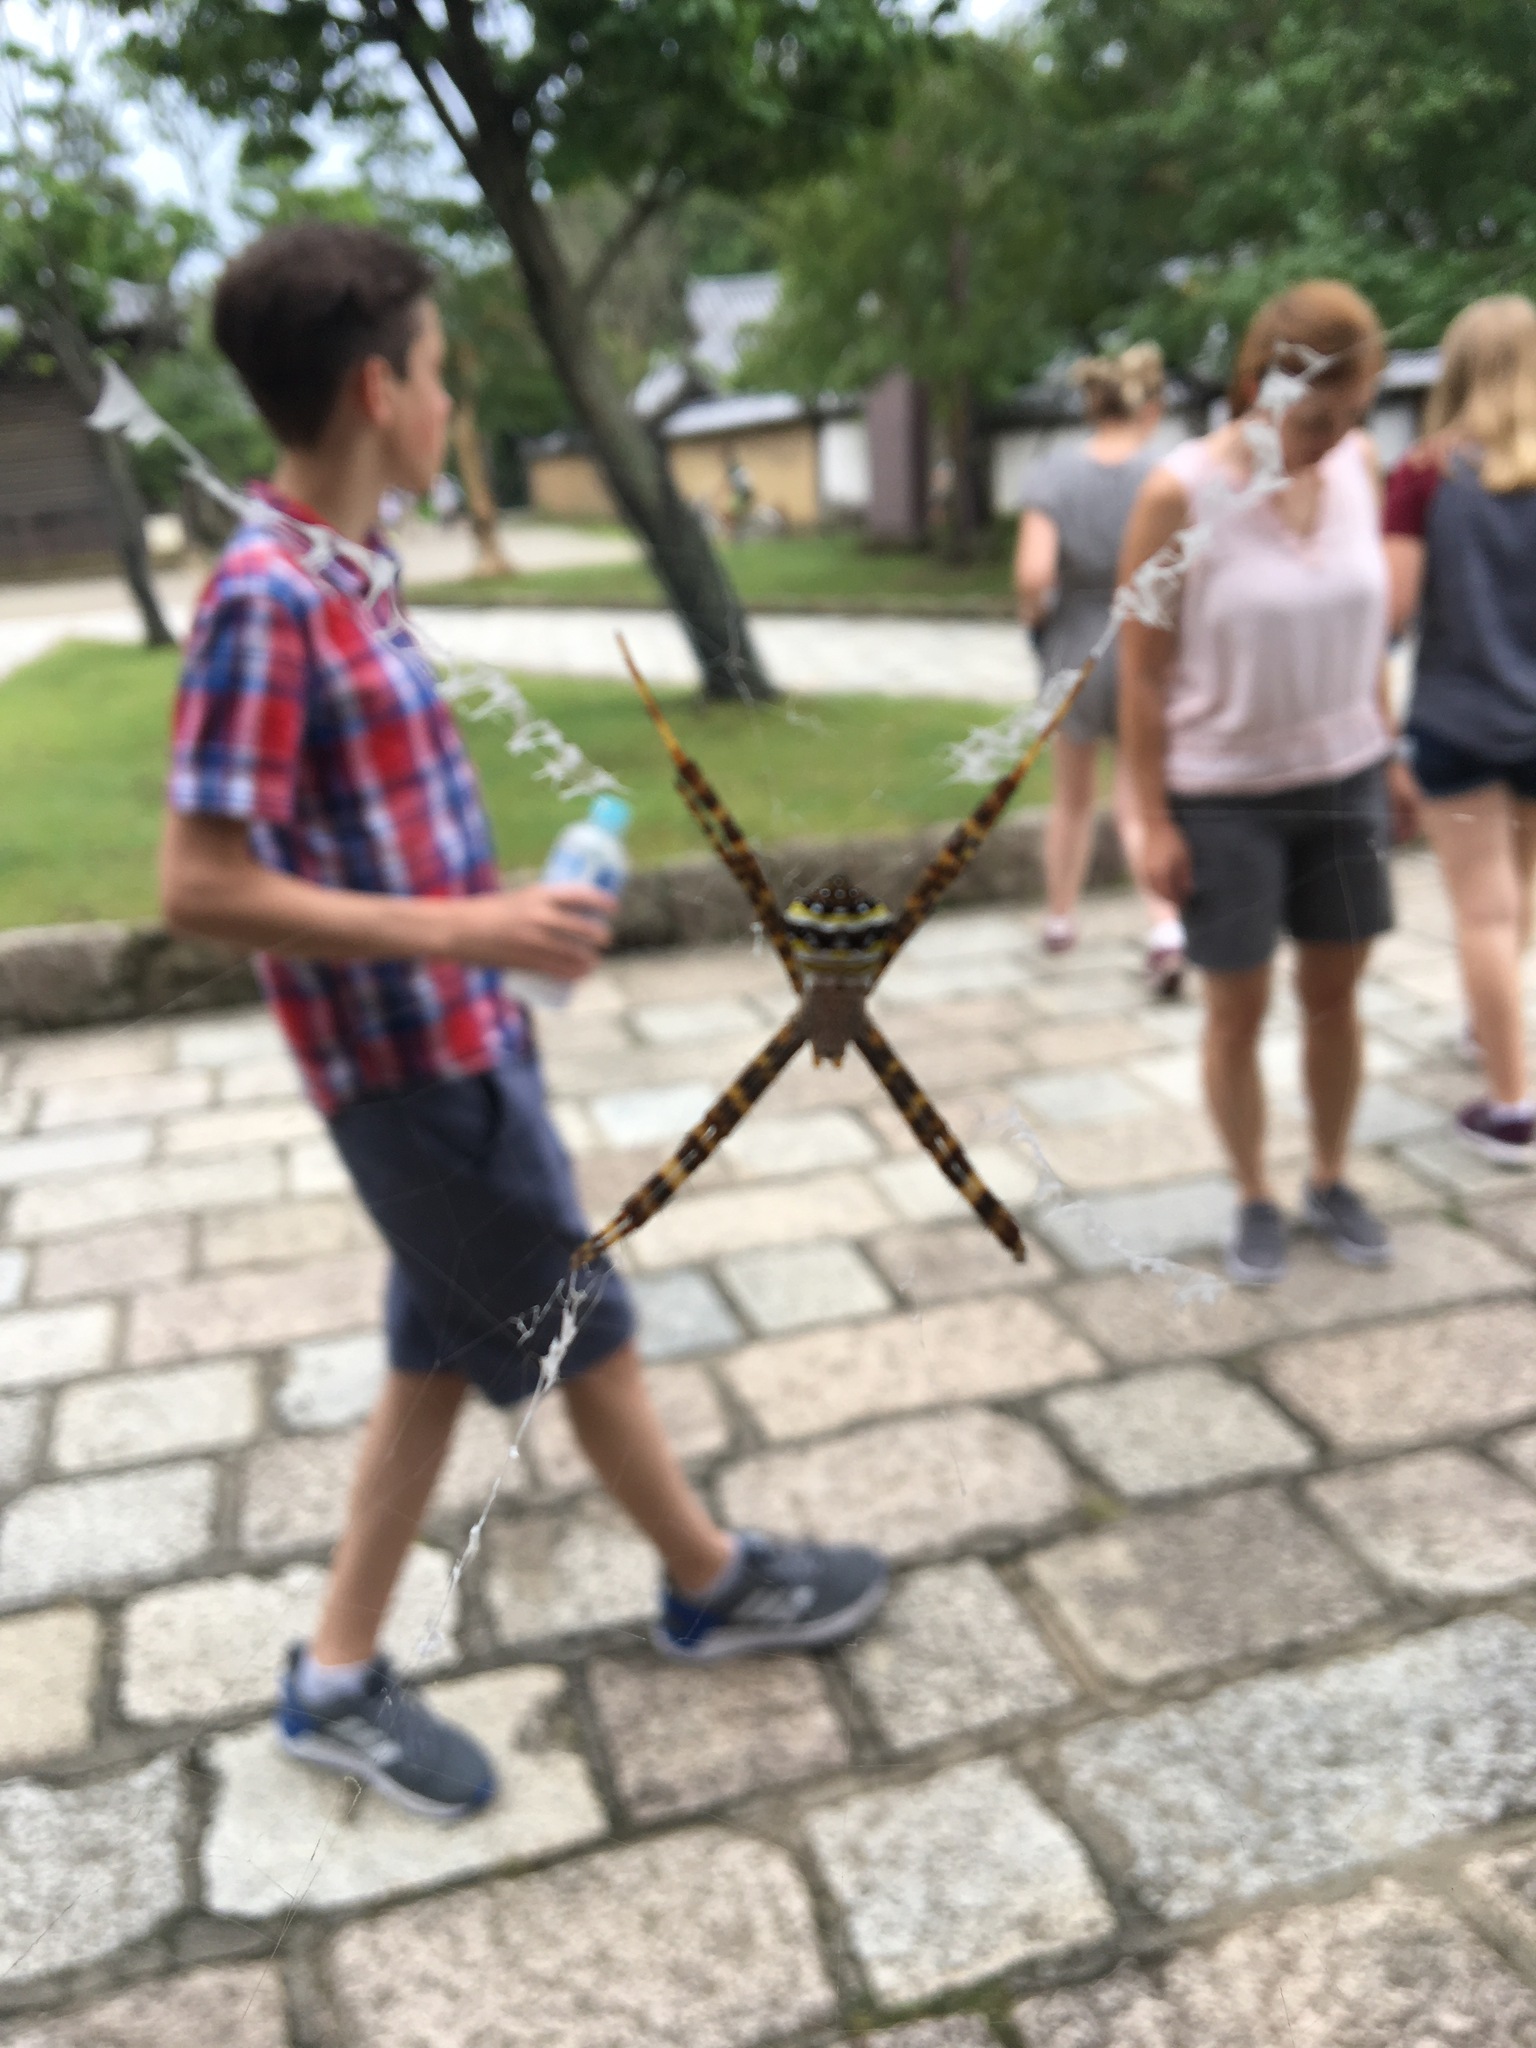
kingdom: Animalia
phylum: Arthropoda
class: Arachnida
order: Araneae
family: Araneidae
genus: Argiope
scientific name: Argiope minuta
